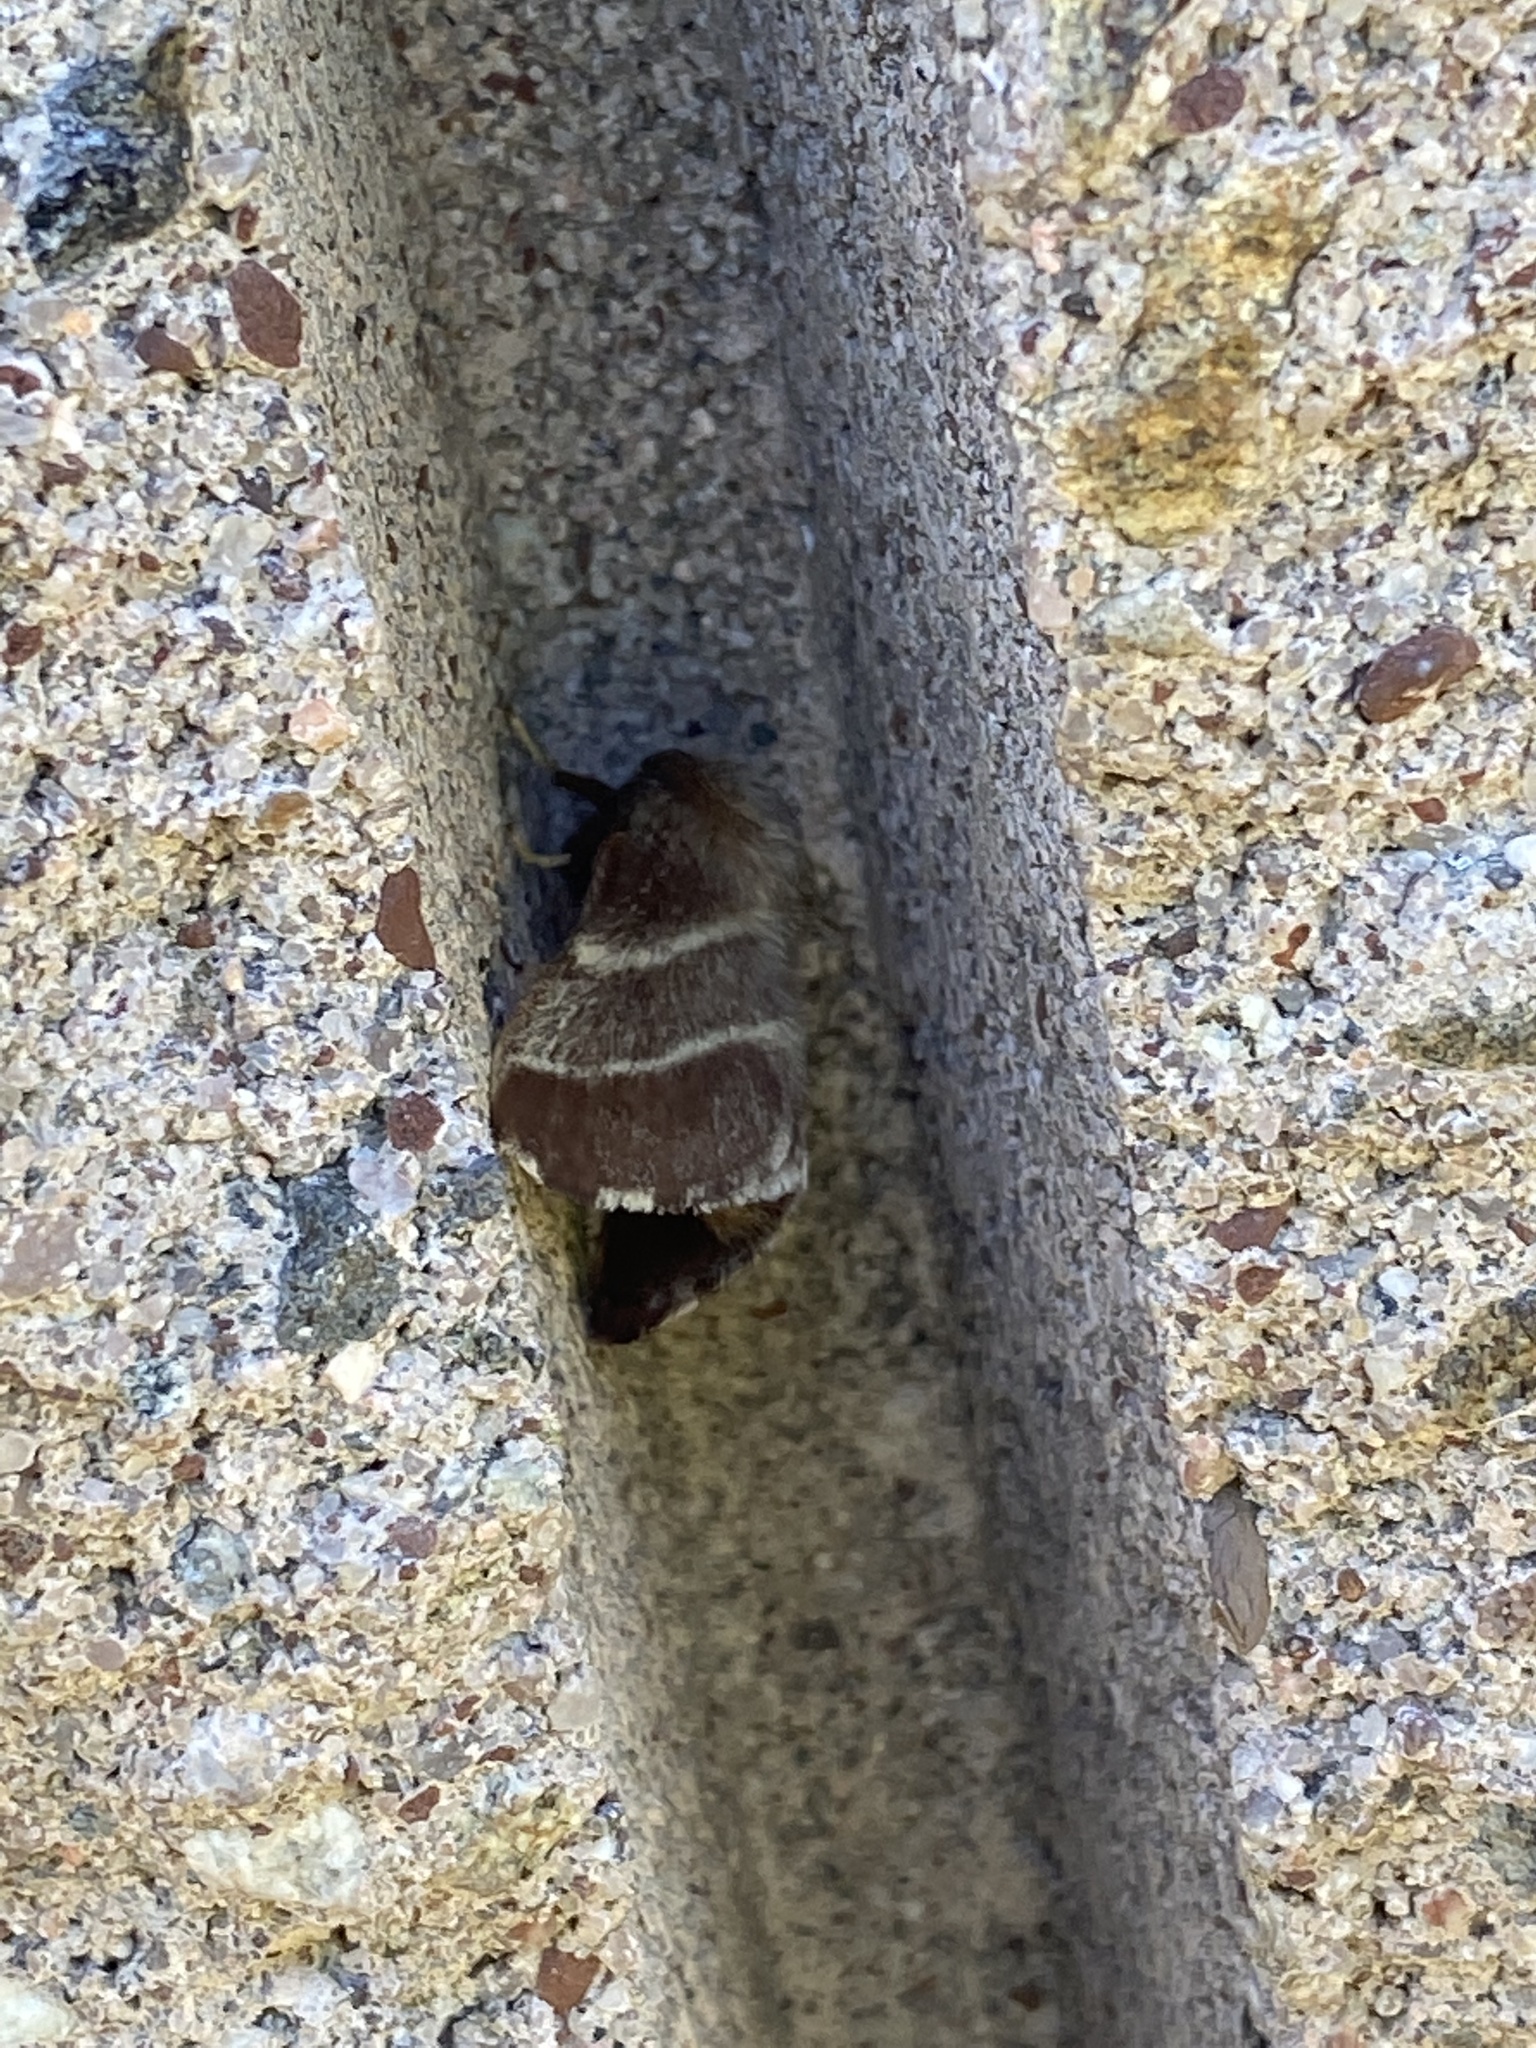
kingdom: Animalia
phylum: Arthropoda
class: Insecta
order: Lepidoptera
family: Lasiocampidae
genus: Malacosoma
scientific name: Malacosoma americana
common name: Eastern tent caterpillar moth
